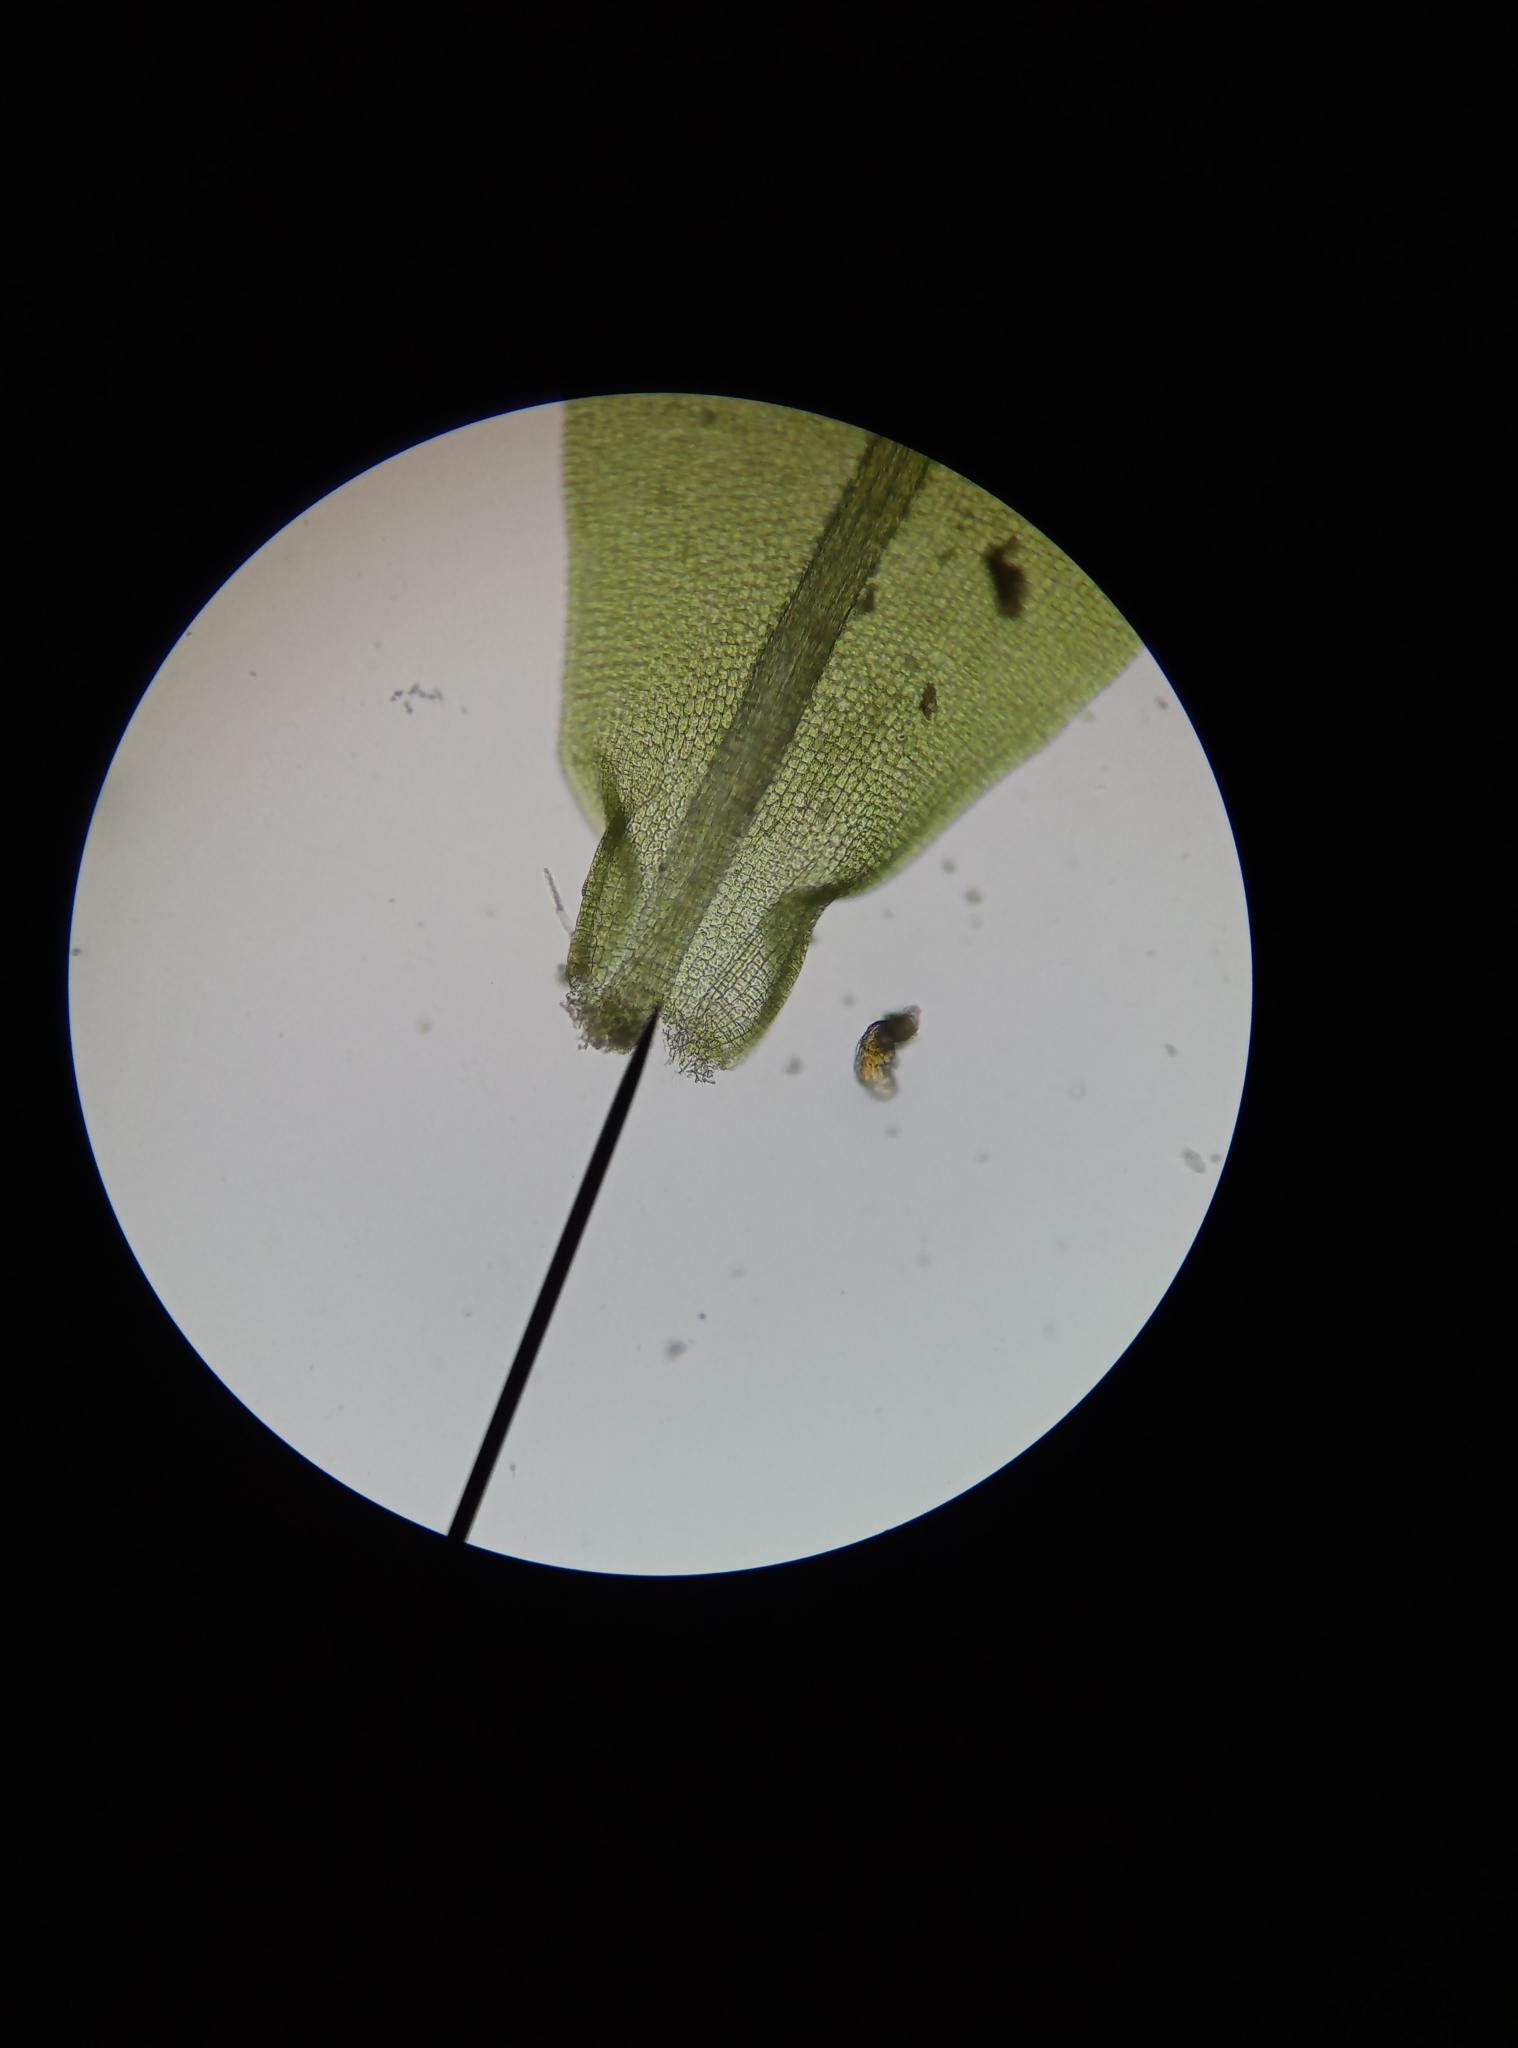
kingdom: Plantae
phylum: Bryophyta
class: Bryopsida
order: Pottiales
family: Pottiaceae
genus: Syntrichia
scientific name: Syntrichia papillosa
